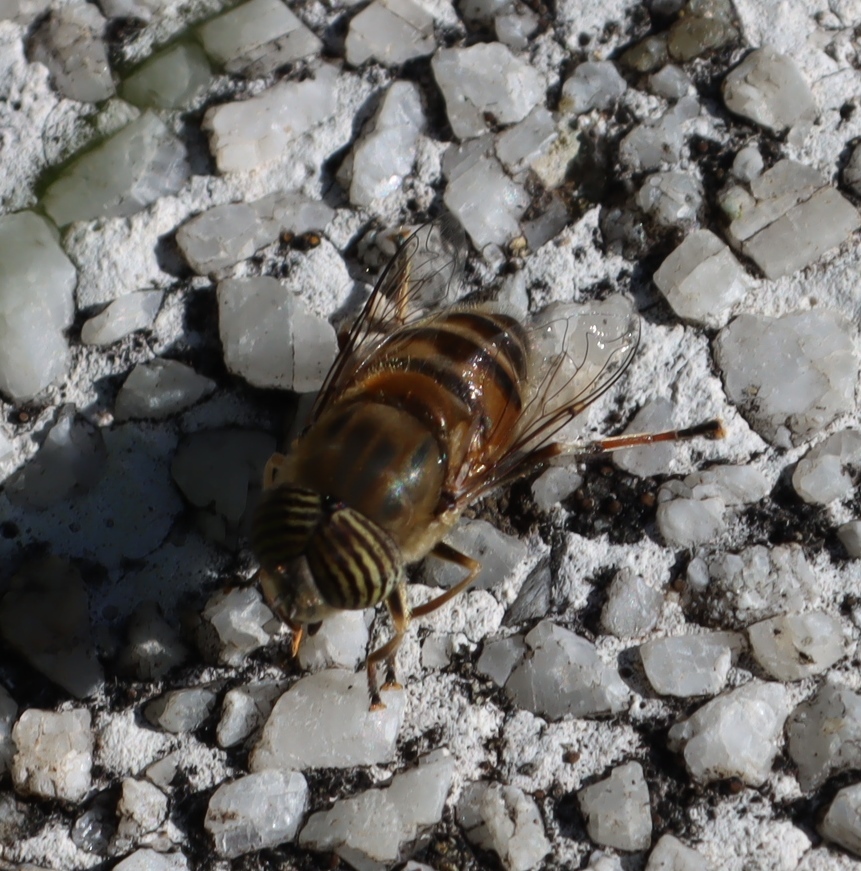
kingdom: Animalia
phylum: Arthropoda
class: Insecta
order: Diptera
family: Syrphidae
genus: Eristalinus
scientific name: Eristalinus taeniops
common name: Syrphid fly
